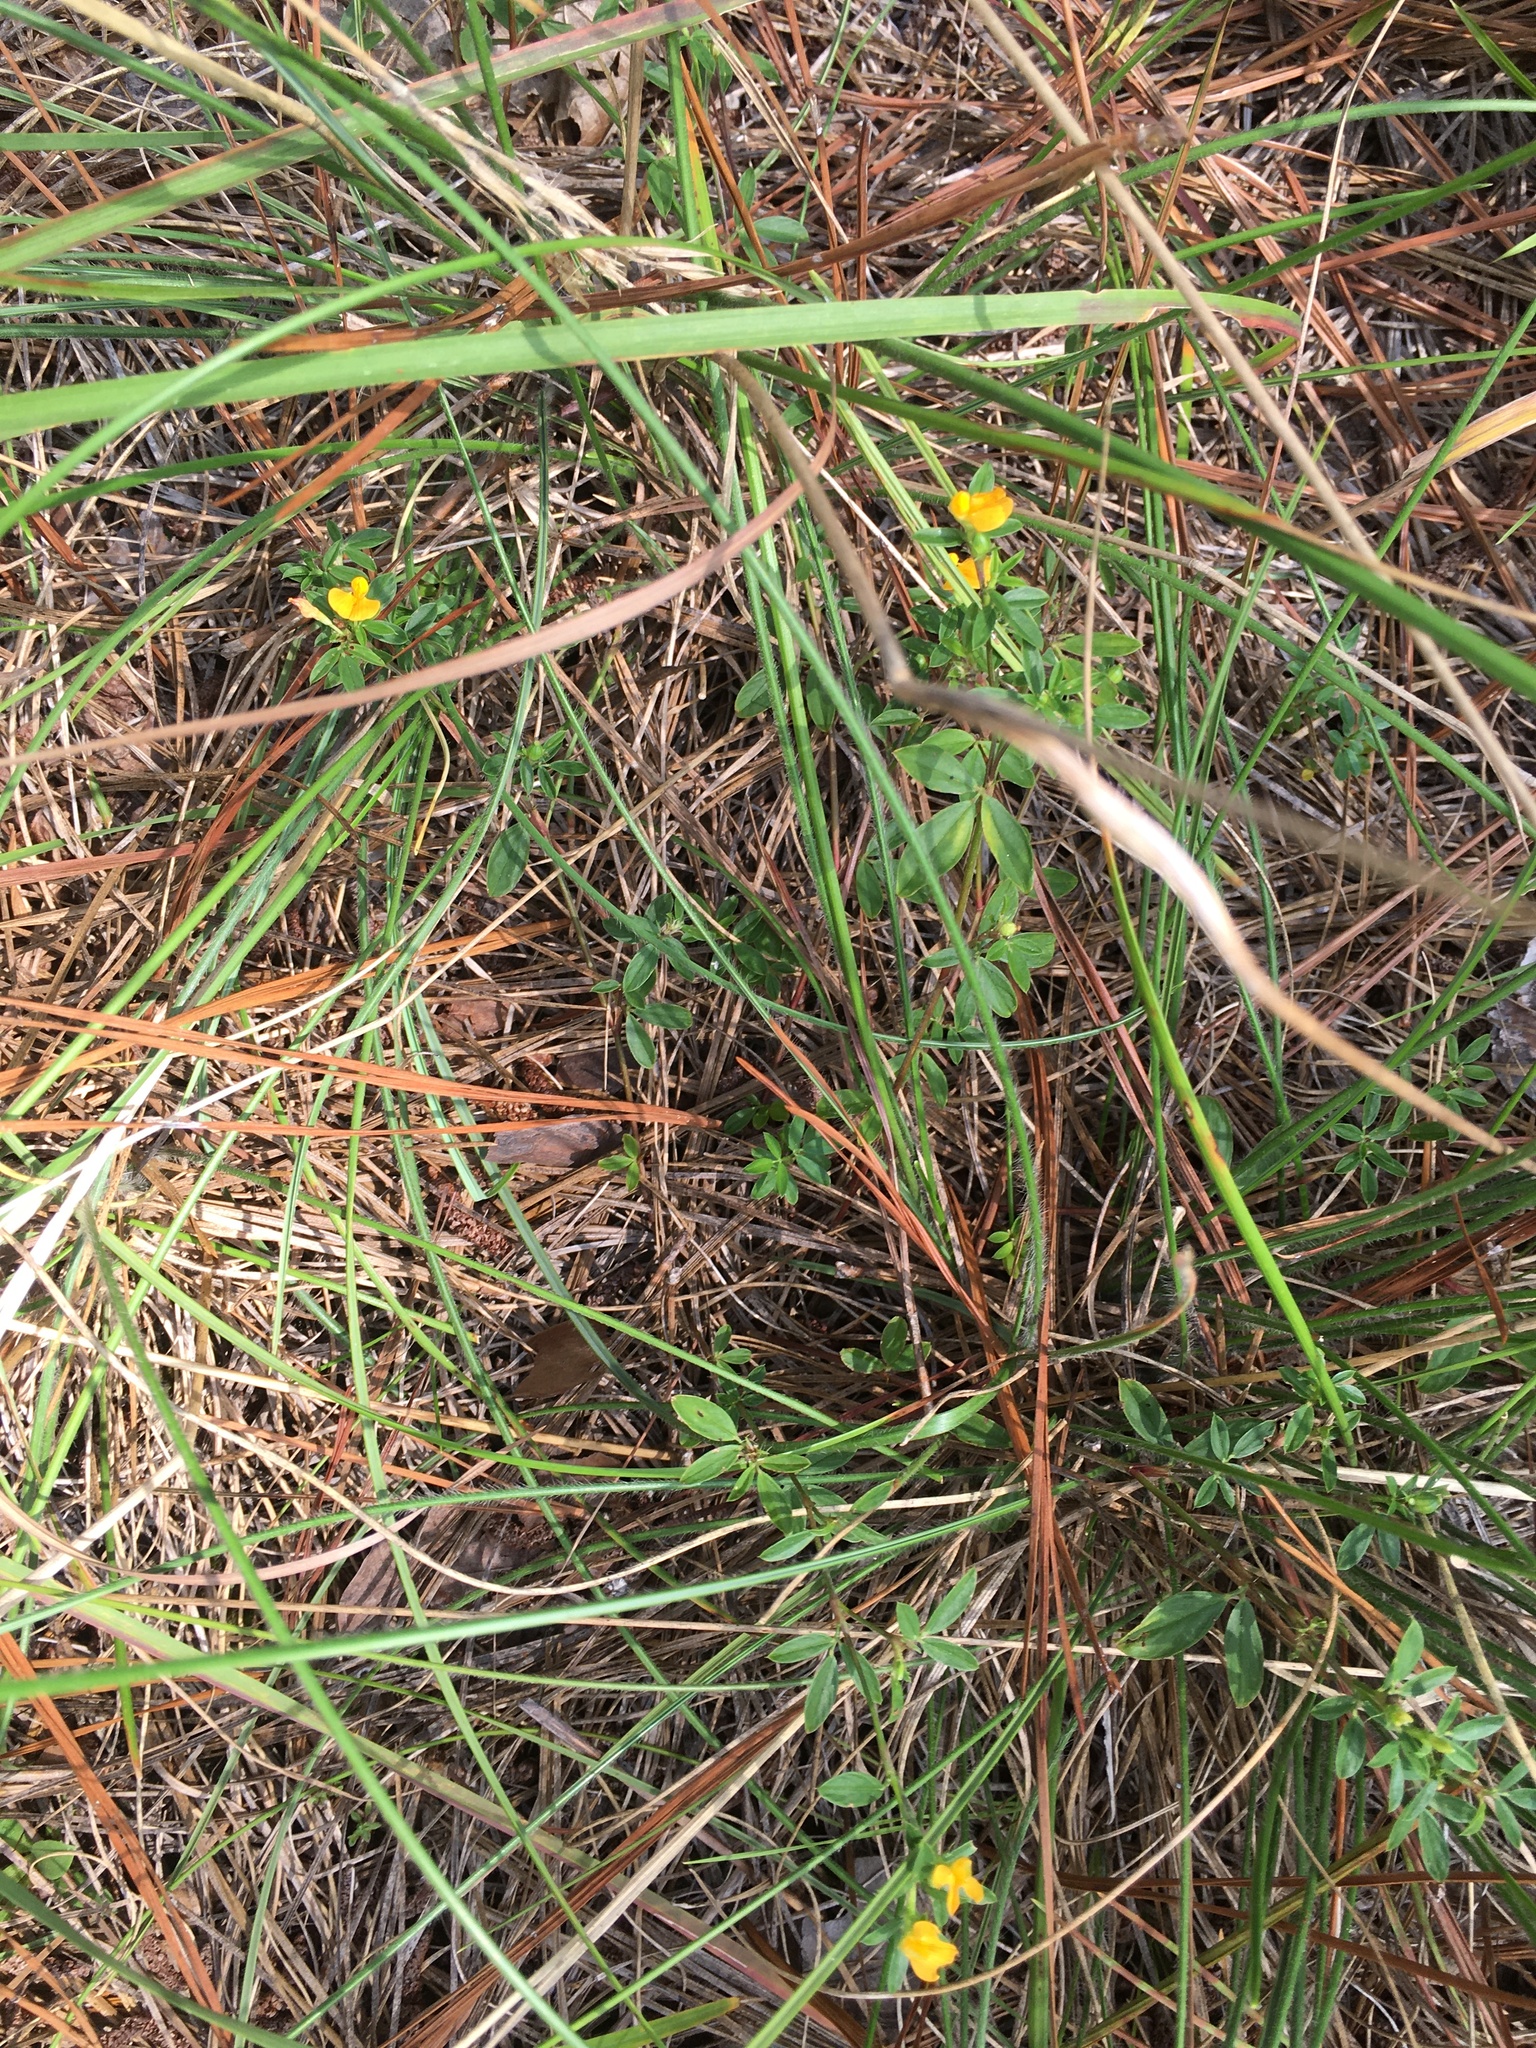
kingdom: Plantae
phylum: Tracheophyta
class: Magnoliopsida
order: Fabales
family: Fabaceae
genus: Stylosanthes
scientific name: Stylosanthes biflora
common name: Two-flower pencil-flower
